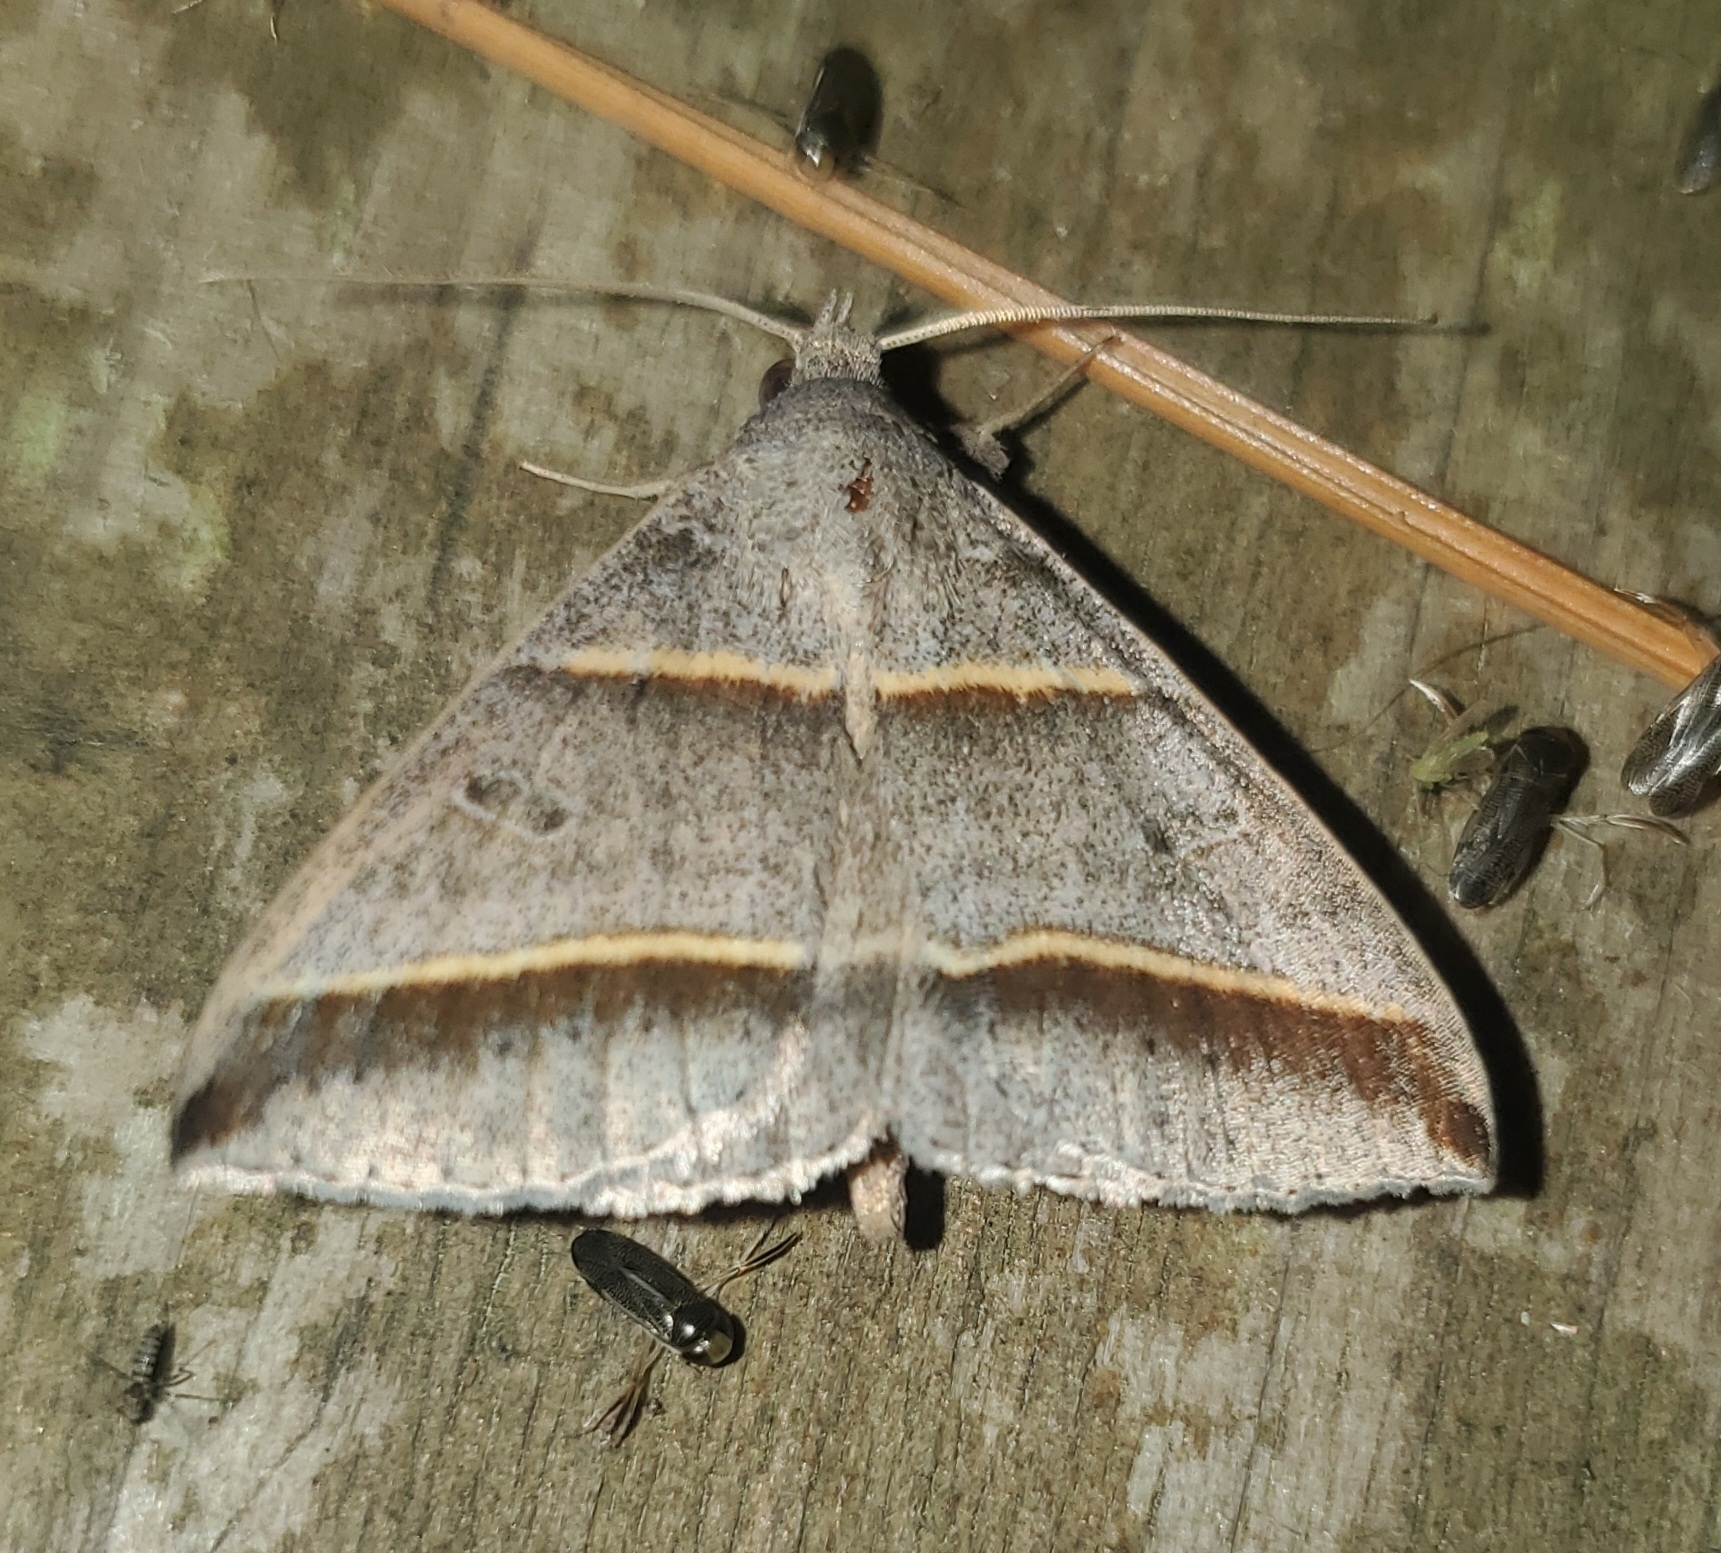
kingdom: Animalia
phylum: Arthropoda
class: Insecta
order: Lepidoptera
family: Erebidae
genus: Ptichodis
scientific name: Ptichodis vinculum
